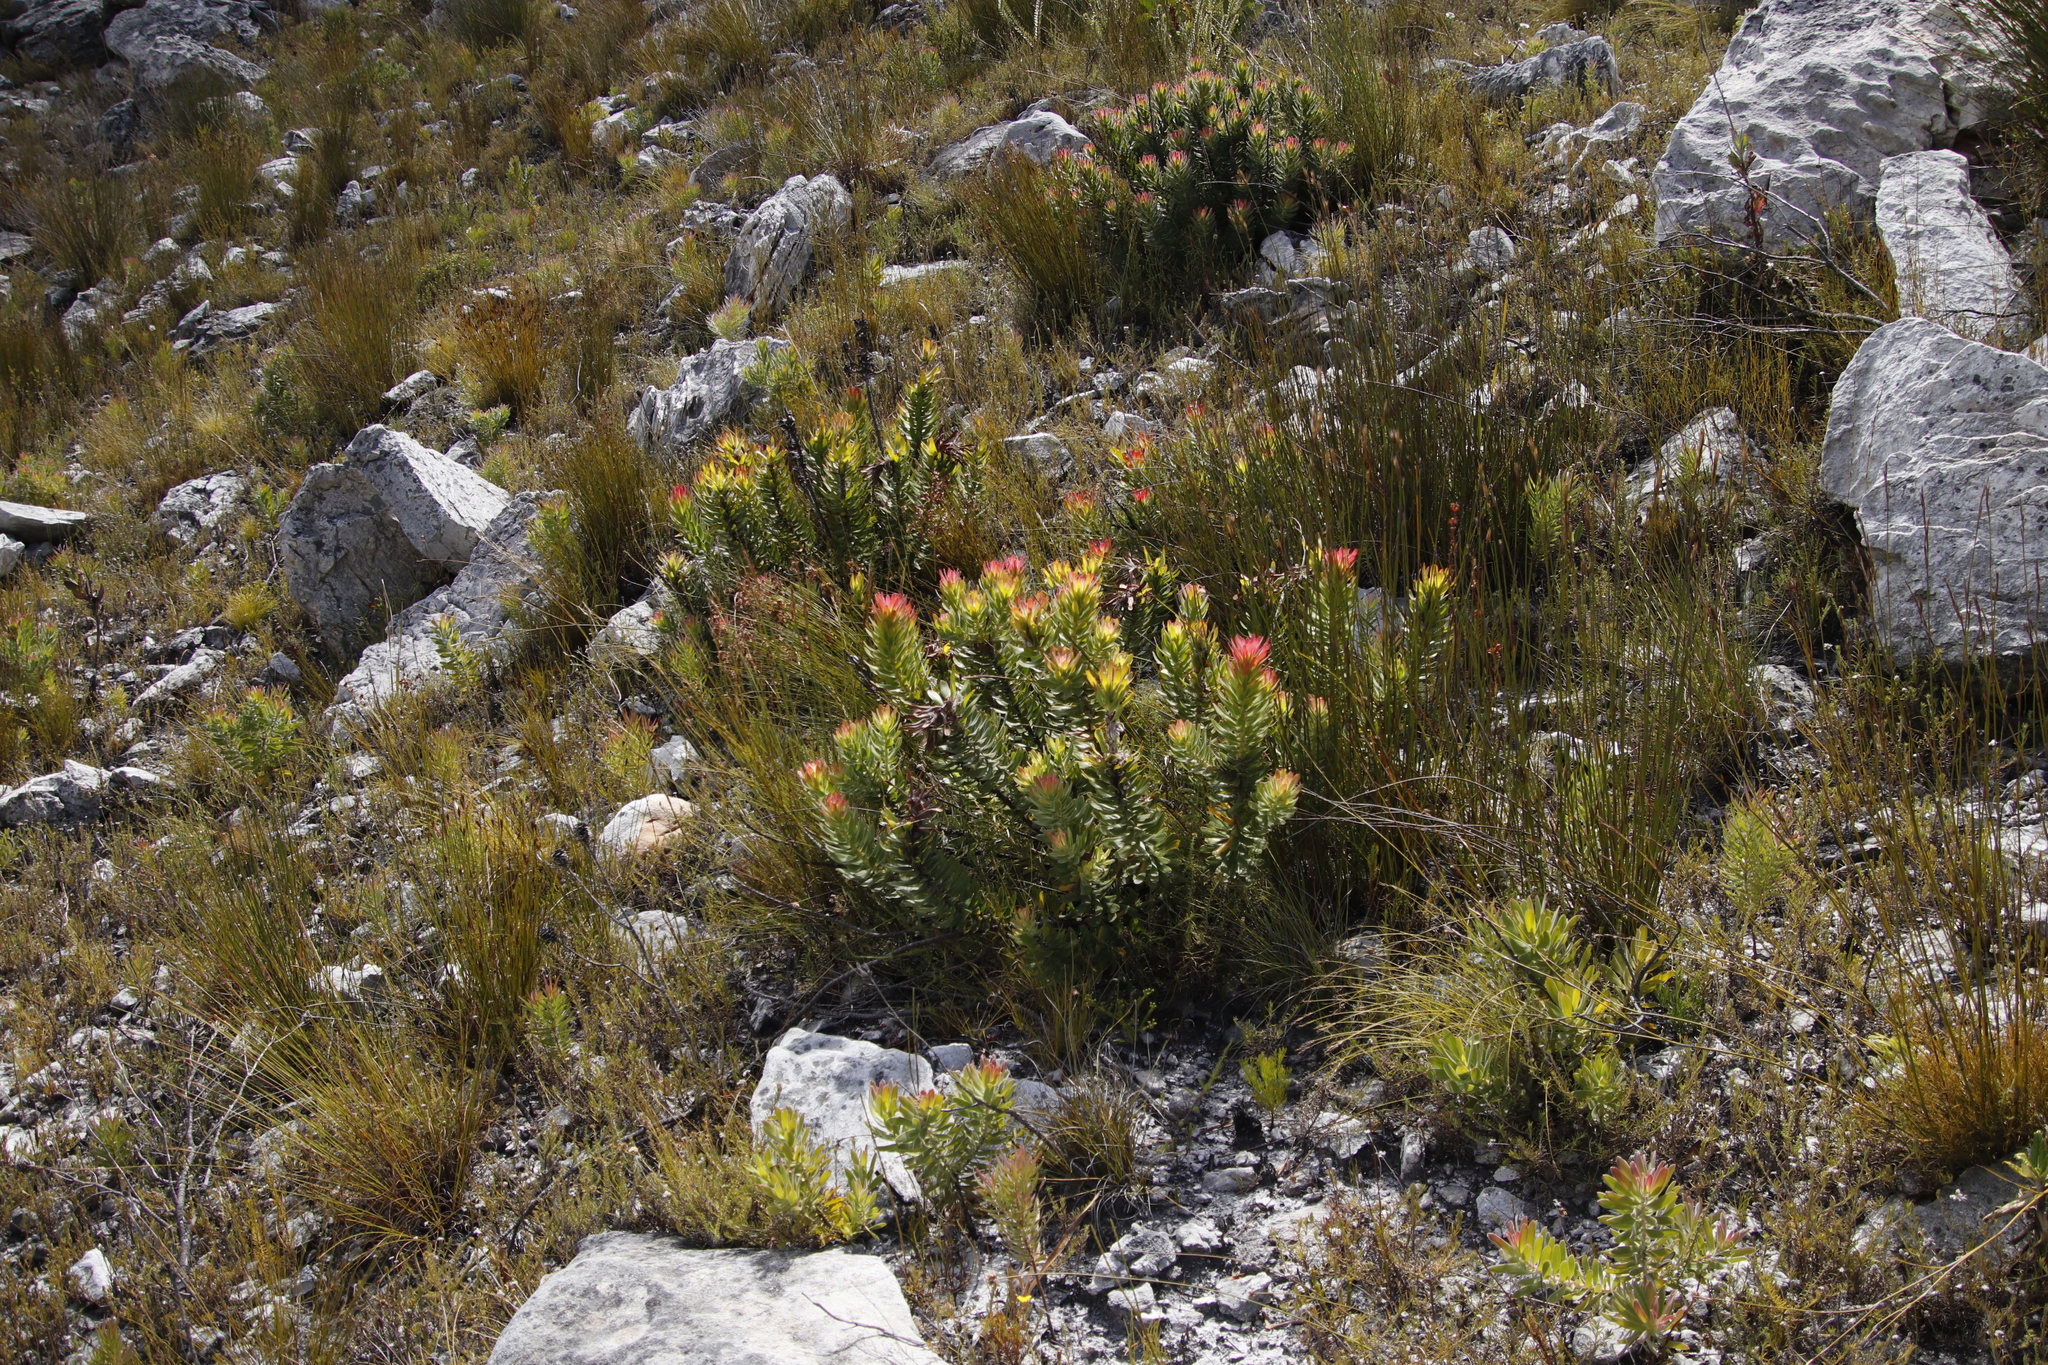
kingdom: Plantae
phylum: Tracheophyta
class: Magnoliopsida
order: Proteales
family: Proteaceae
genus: Mimetes
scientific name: Mimetes cucullatus
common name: Common pagoda
